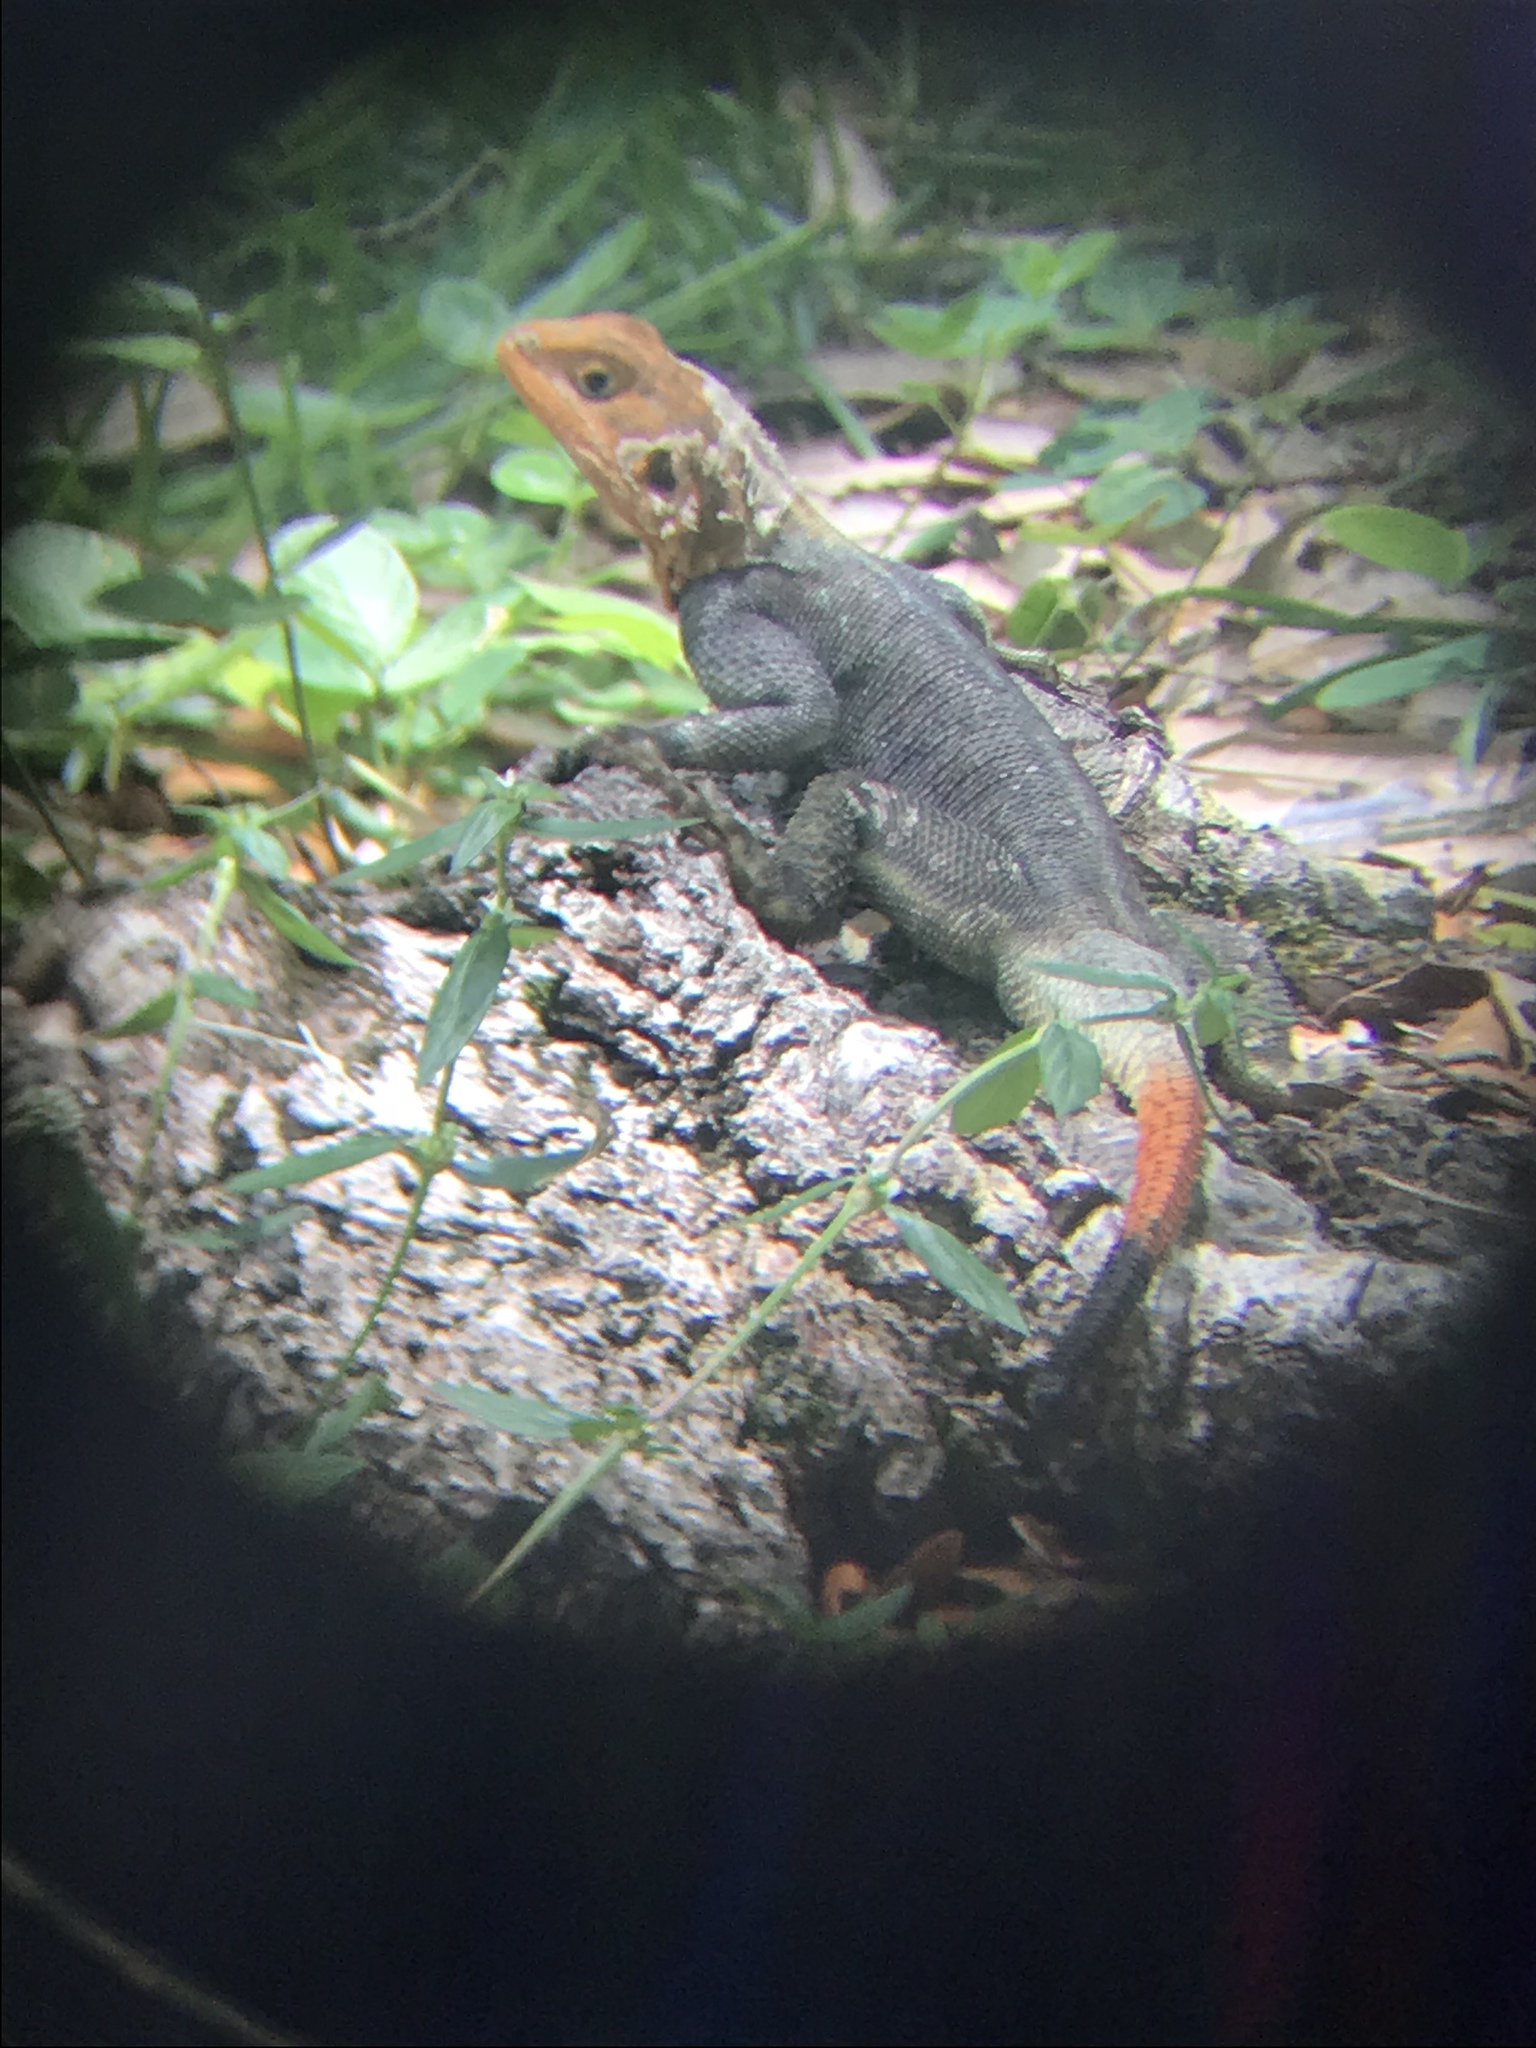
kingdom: Animalia
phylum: Chordata
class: Squamata
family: Agamidae
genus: Agama
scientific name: Agama picticauda
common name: Red-headed agama
